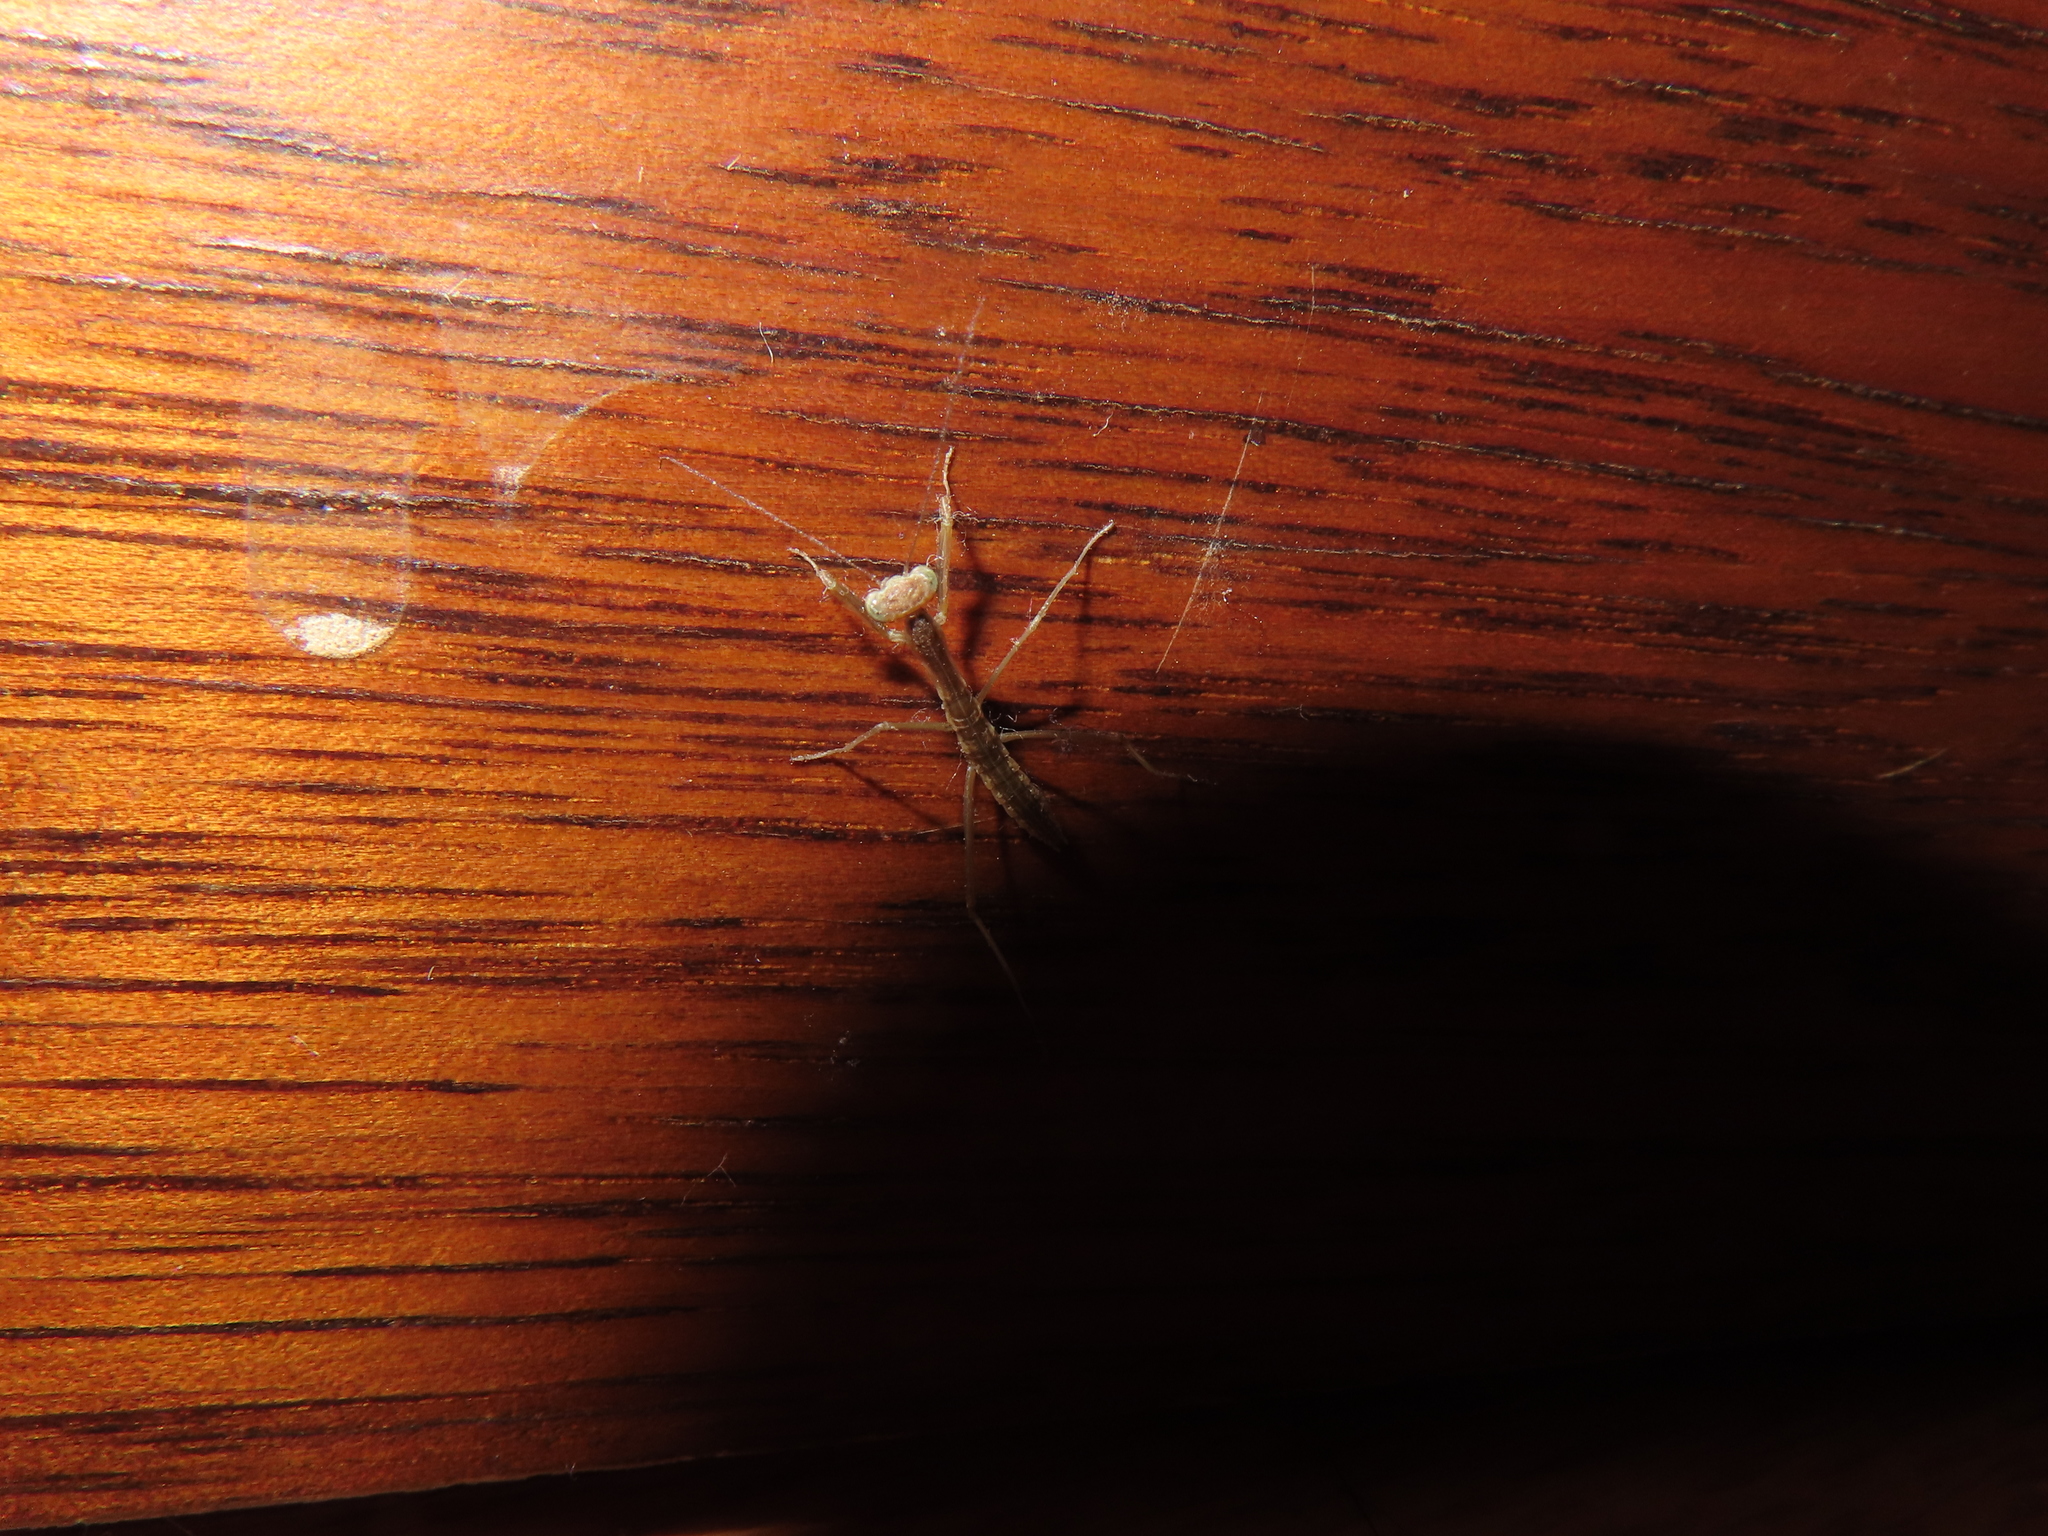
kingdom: Animalia
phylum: Arthropoda
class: Insecta
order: Mantodea
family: Mantidae
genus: Tenodera
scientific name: Tenodera sinensis
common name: Chinese mantis
